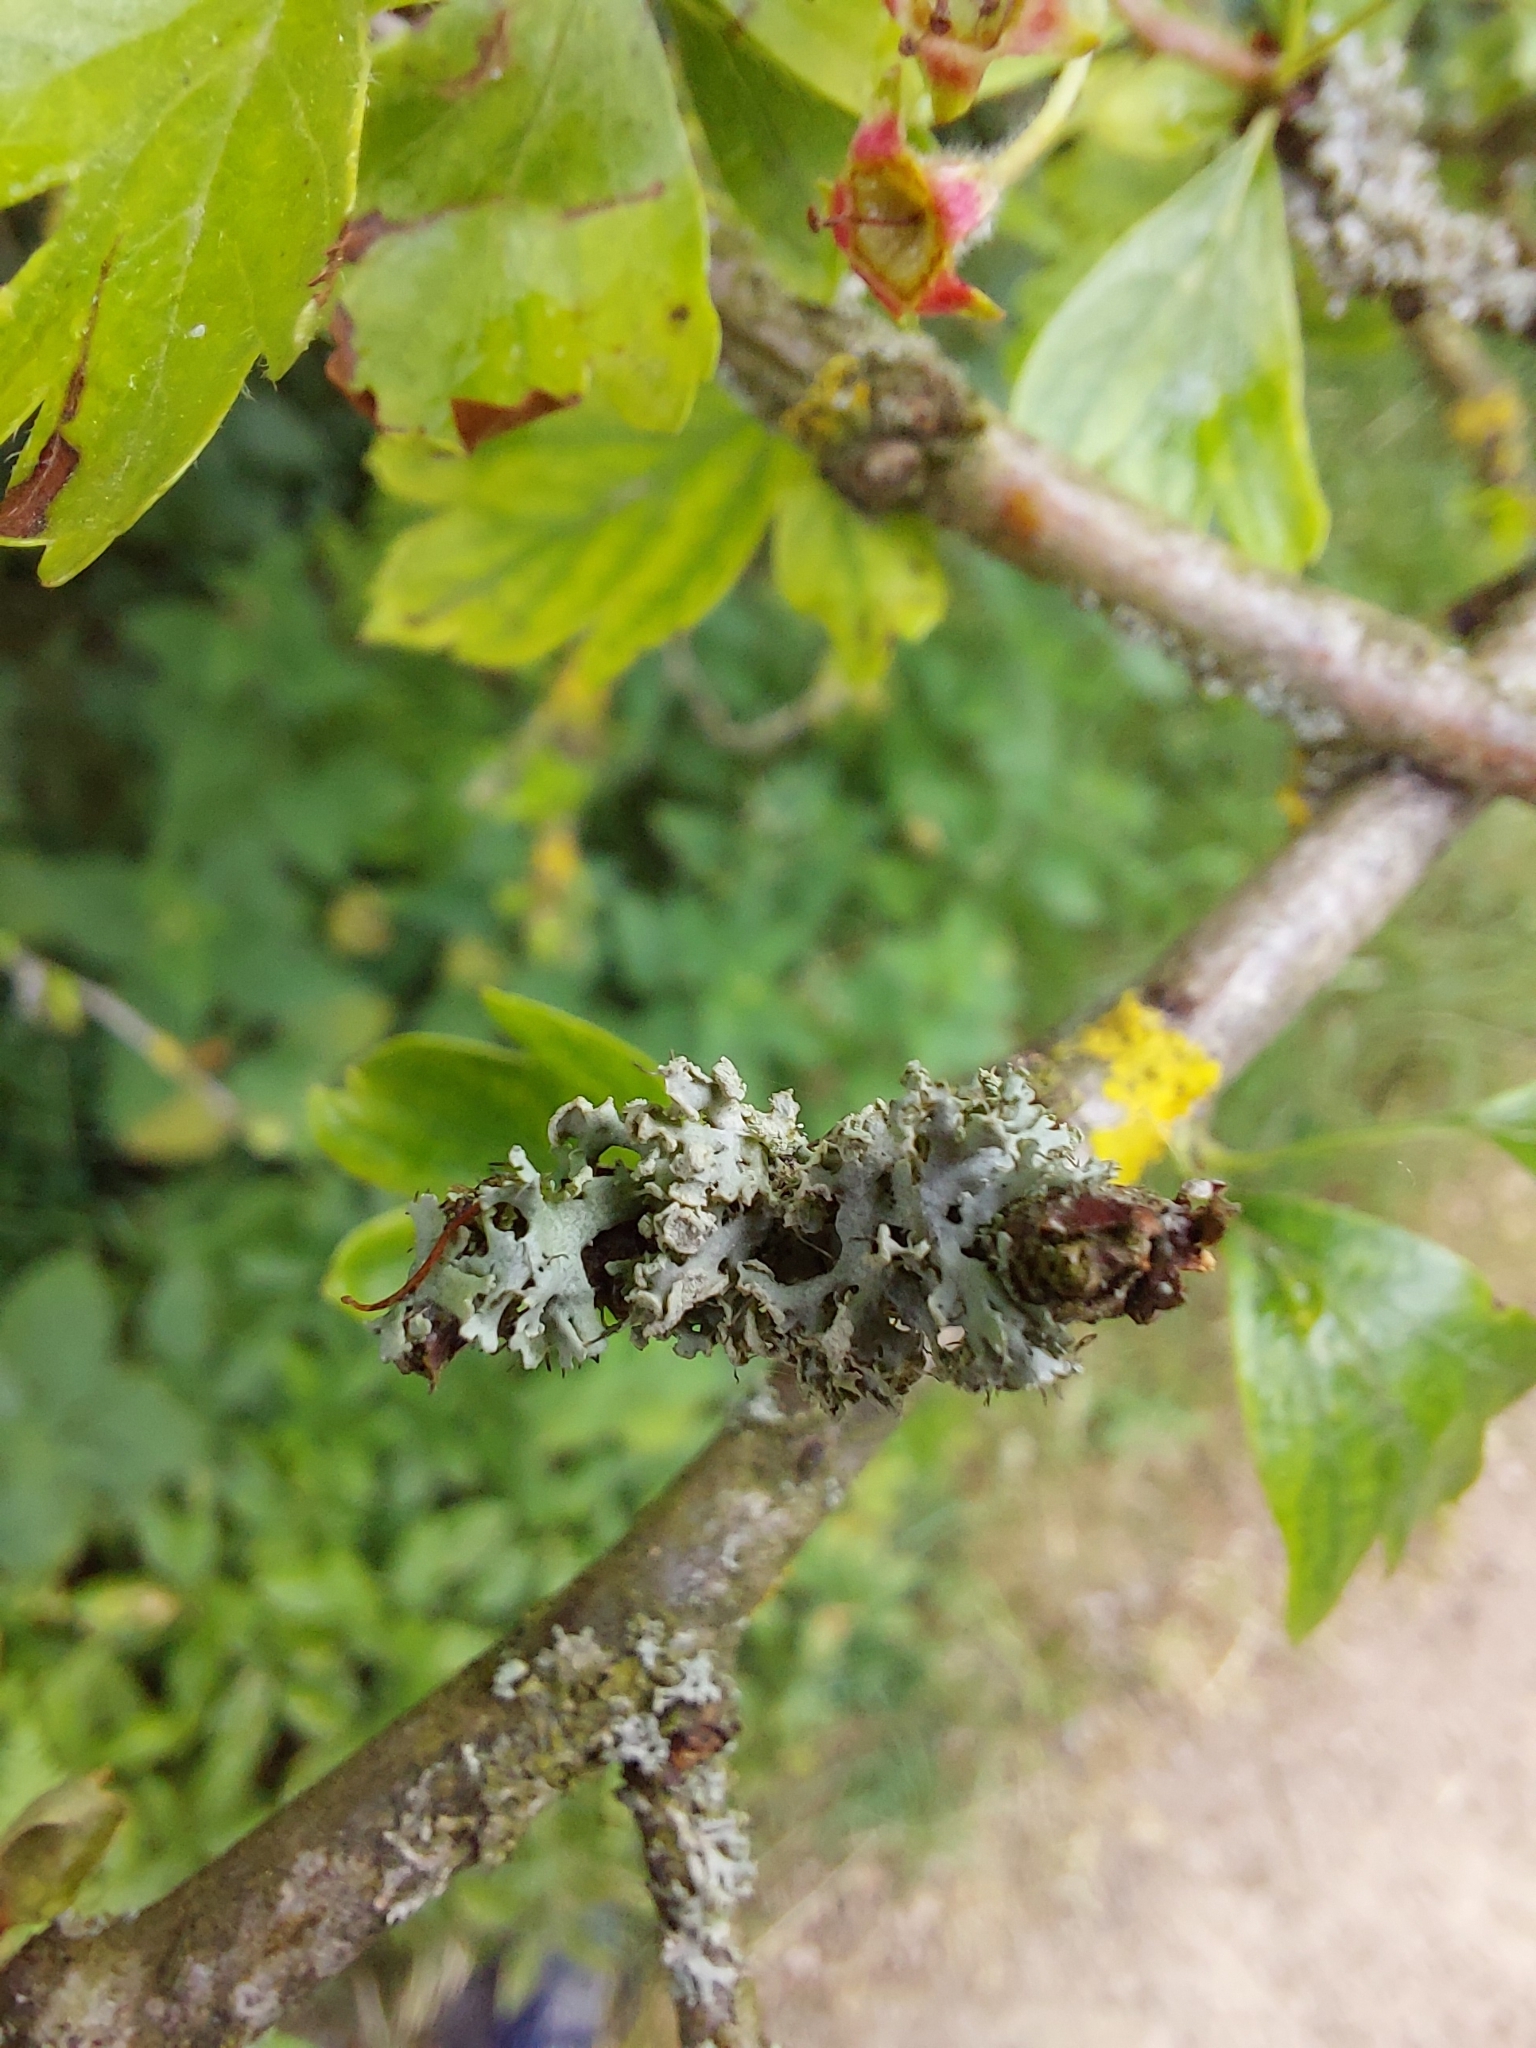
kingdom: Fungi
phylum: Ascomycota
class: Lecanoromycetes
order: Caliciales
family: Physciaceae
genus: Physcia
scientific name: Physcia tenella
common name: Fringed rosette lichen
